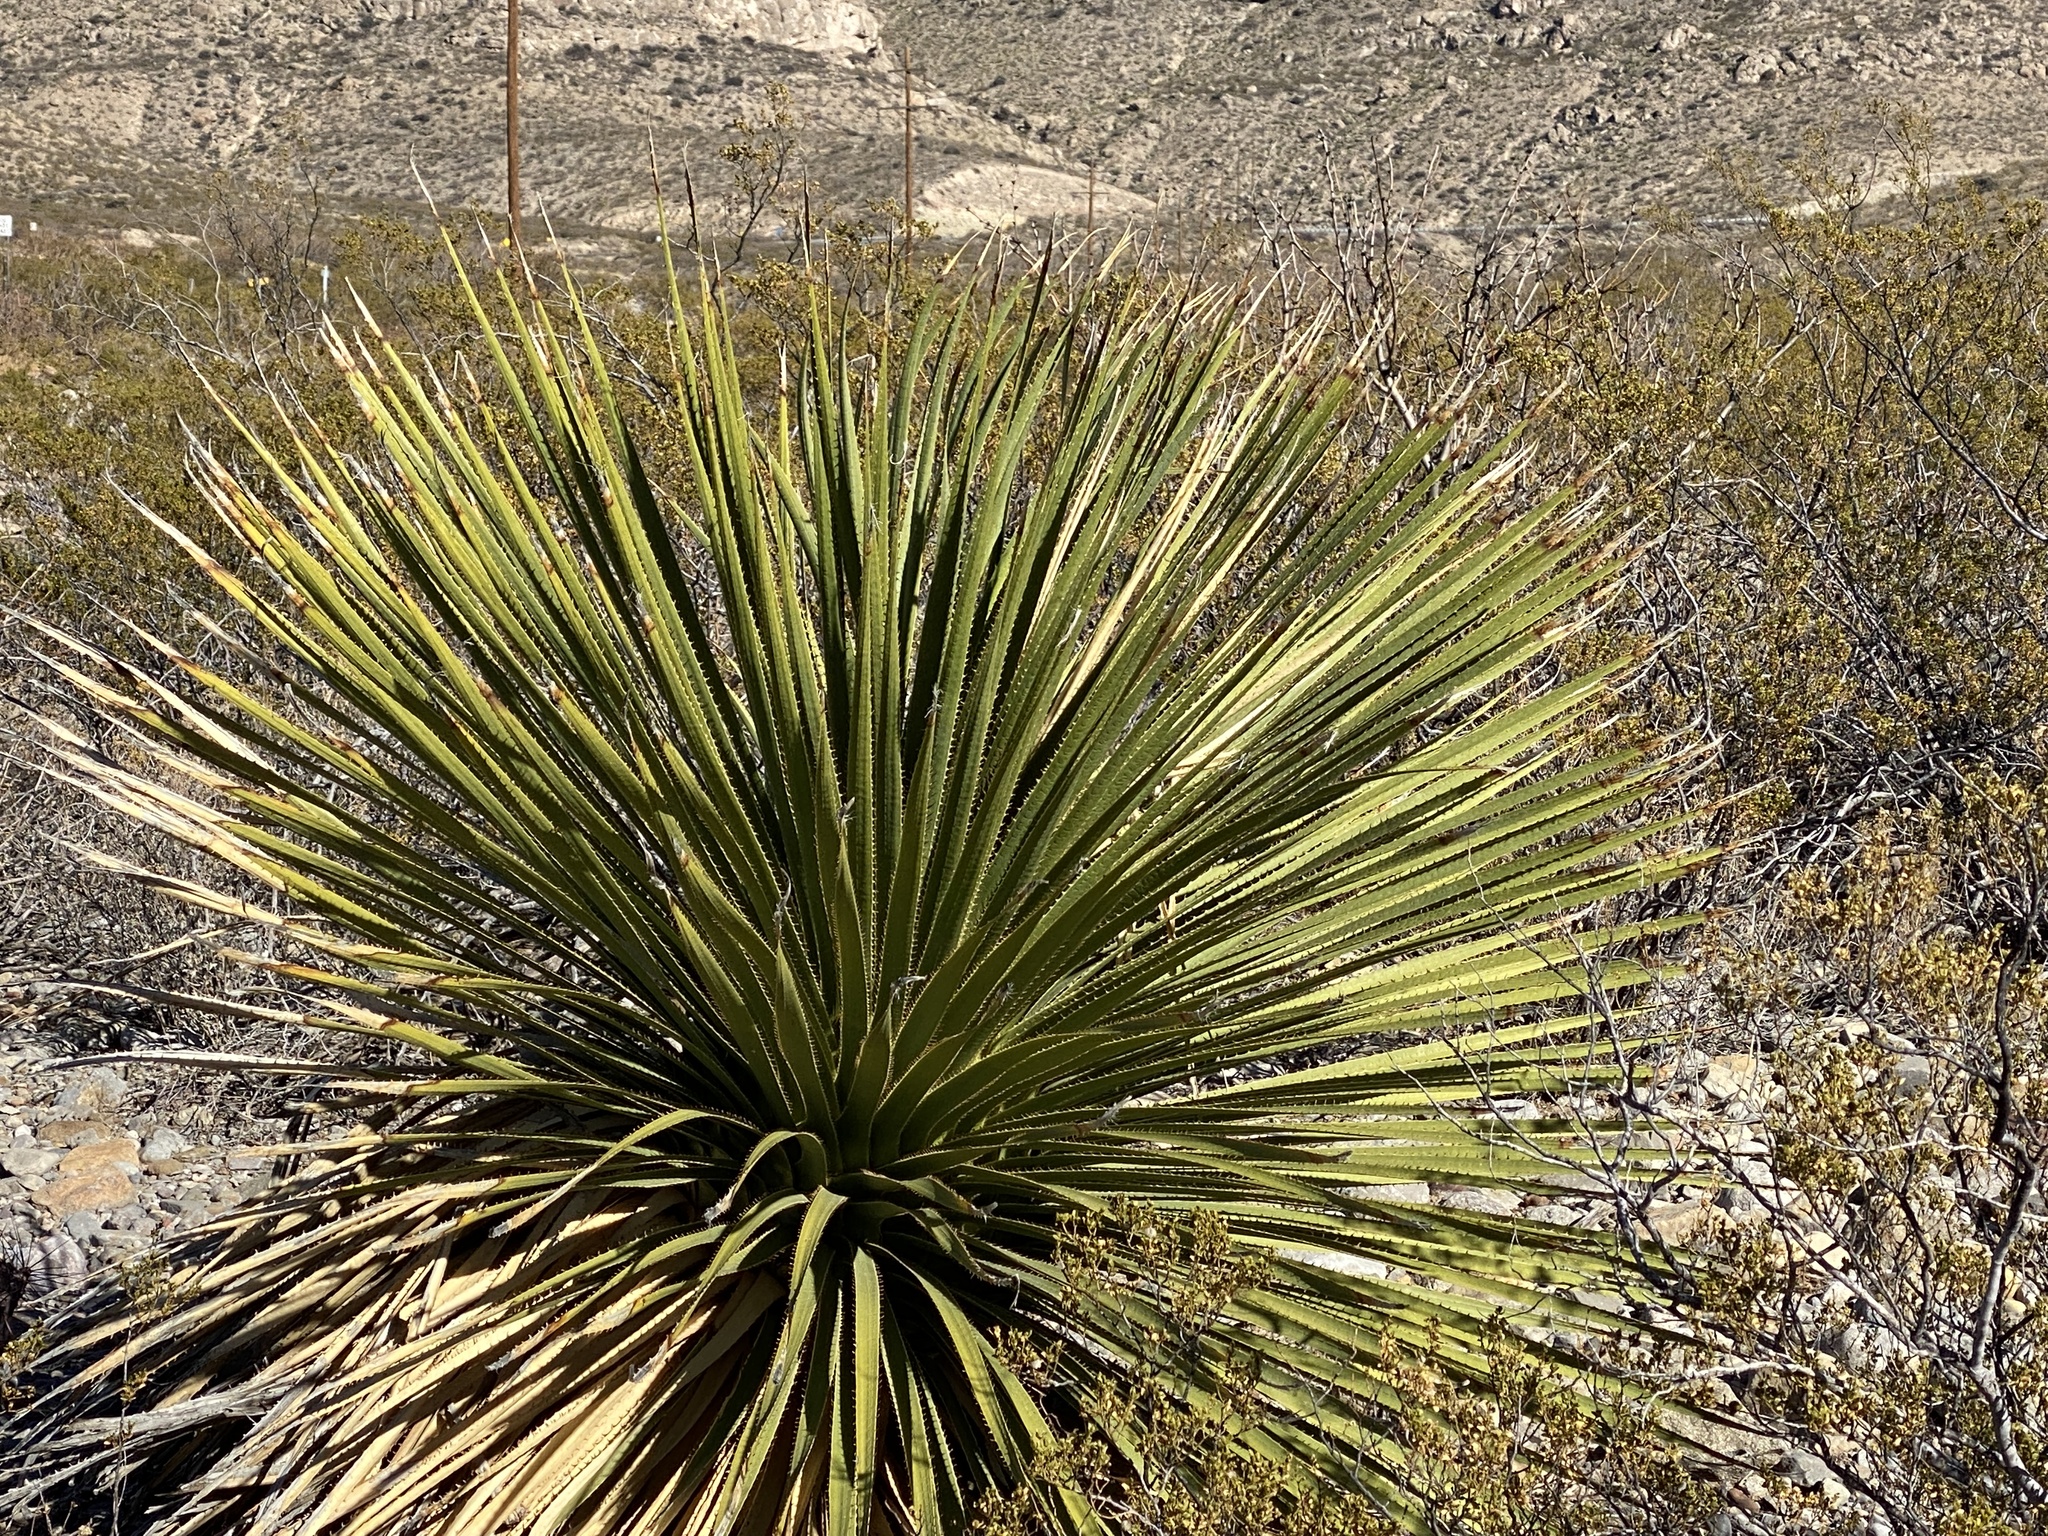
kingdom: Plantae
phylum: Tracheophyta
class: Liliopsida
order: Asparagales
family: Asparagaceae
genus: Dasylirion
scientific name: Dasylirion wheeleri
